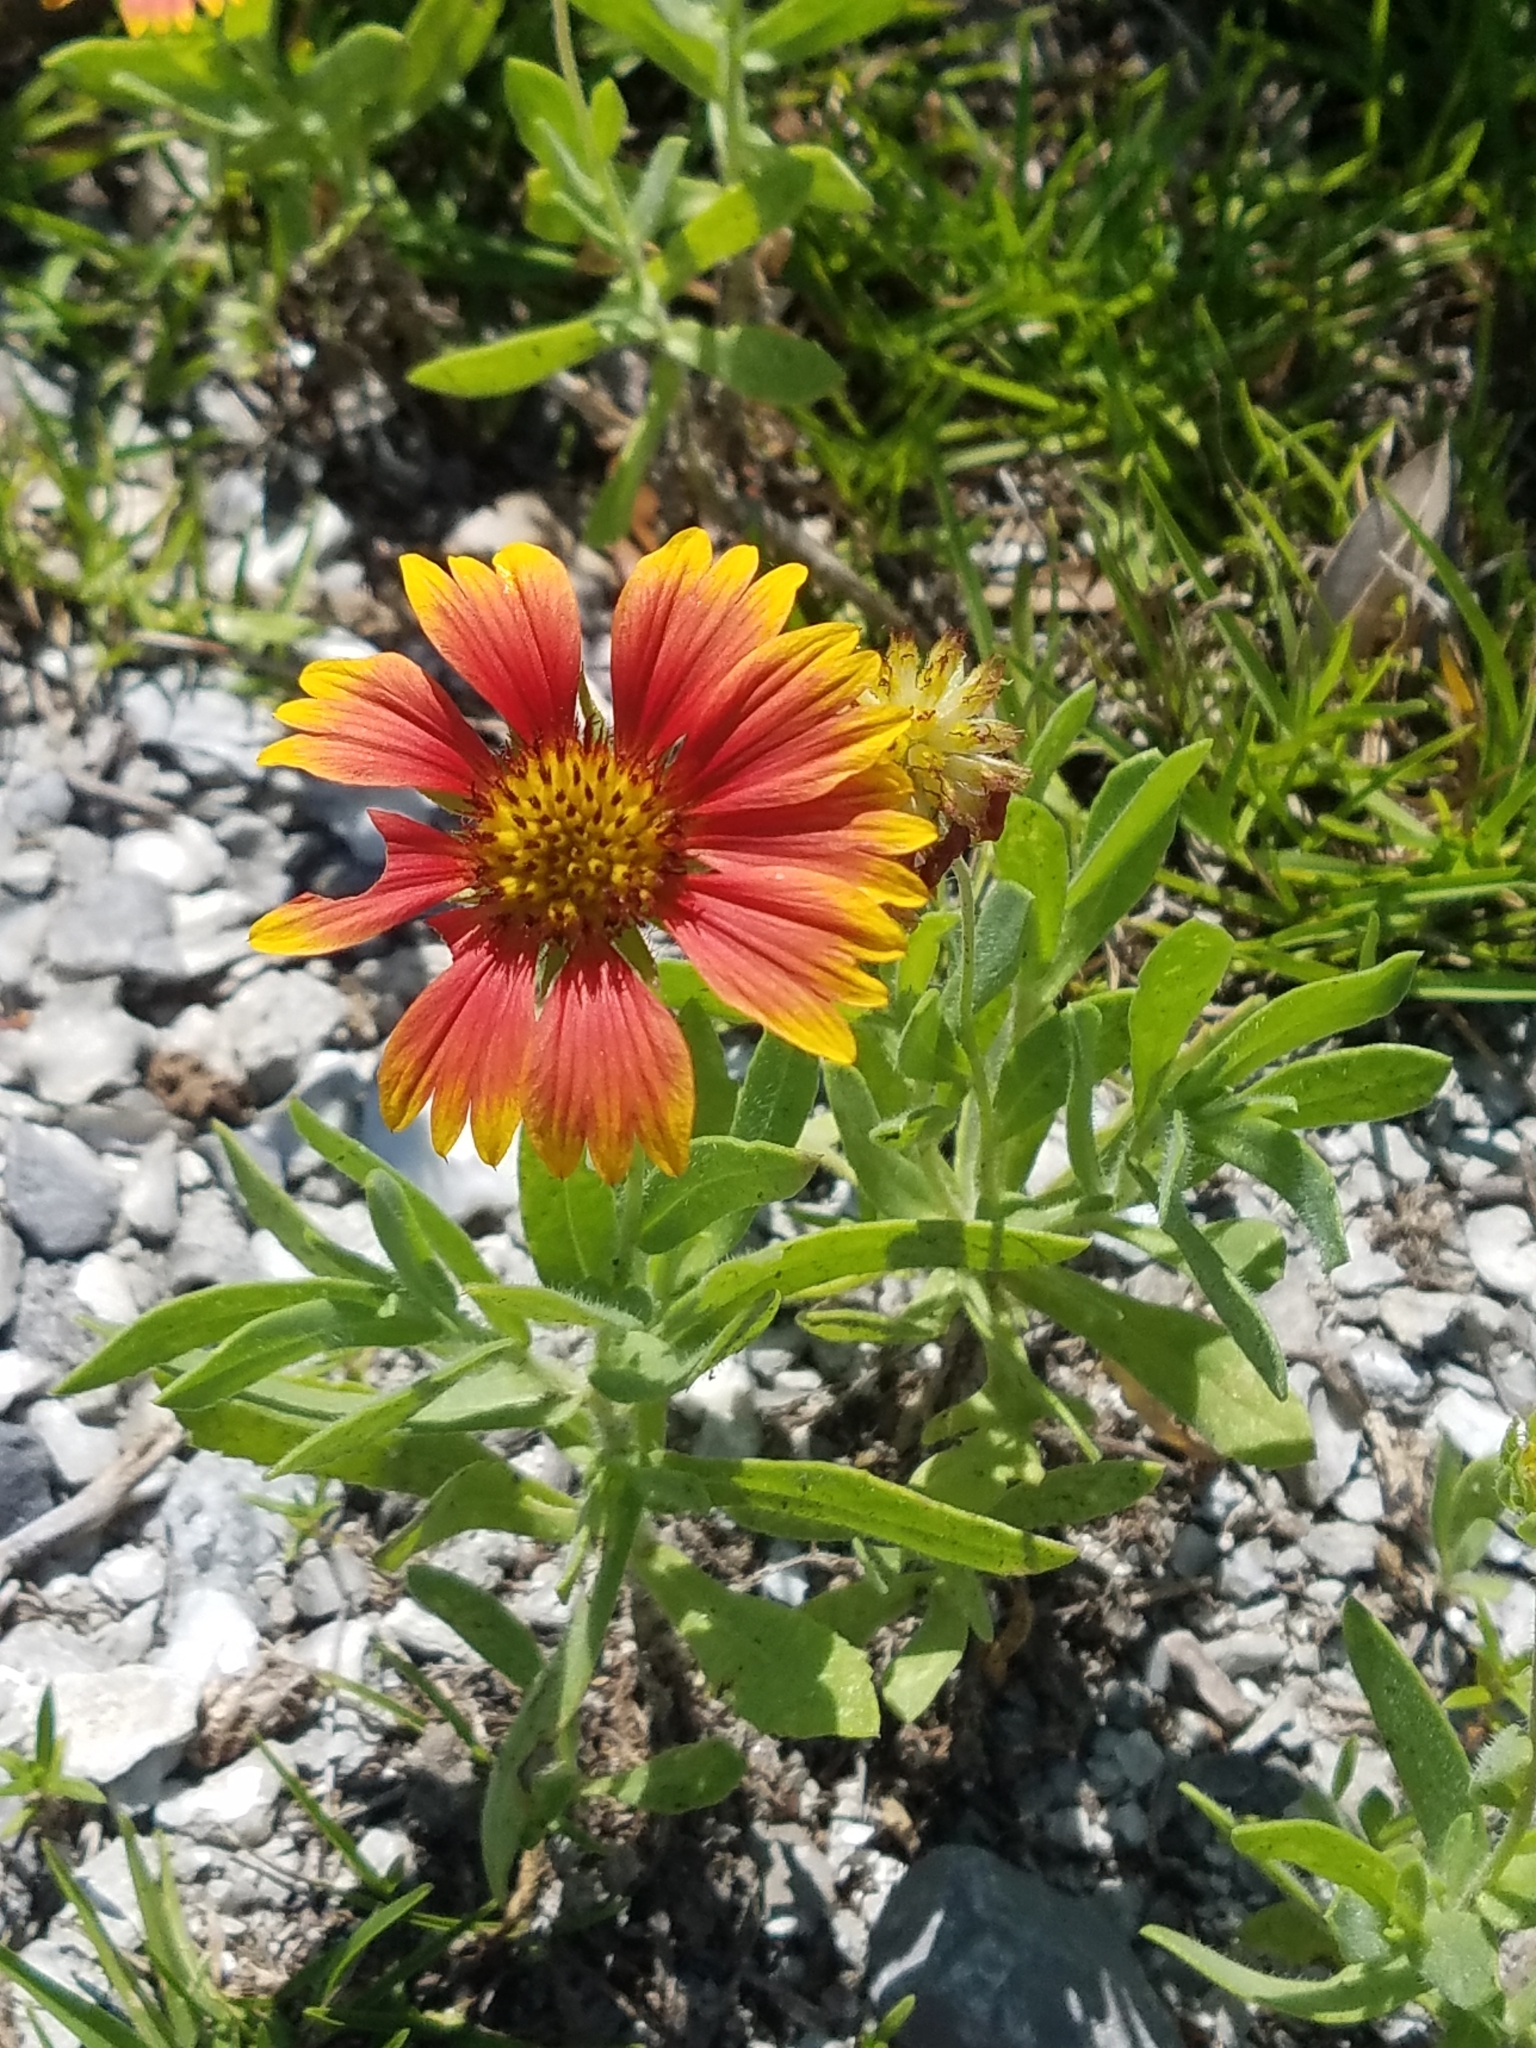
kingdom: Plantae
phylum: Tracheophyta
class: Magnoliopsida
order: Asterales
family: Asteraceae
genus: Gaillardia
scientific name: Gaillardia pulchella
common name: Firewheel
